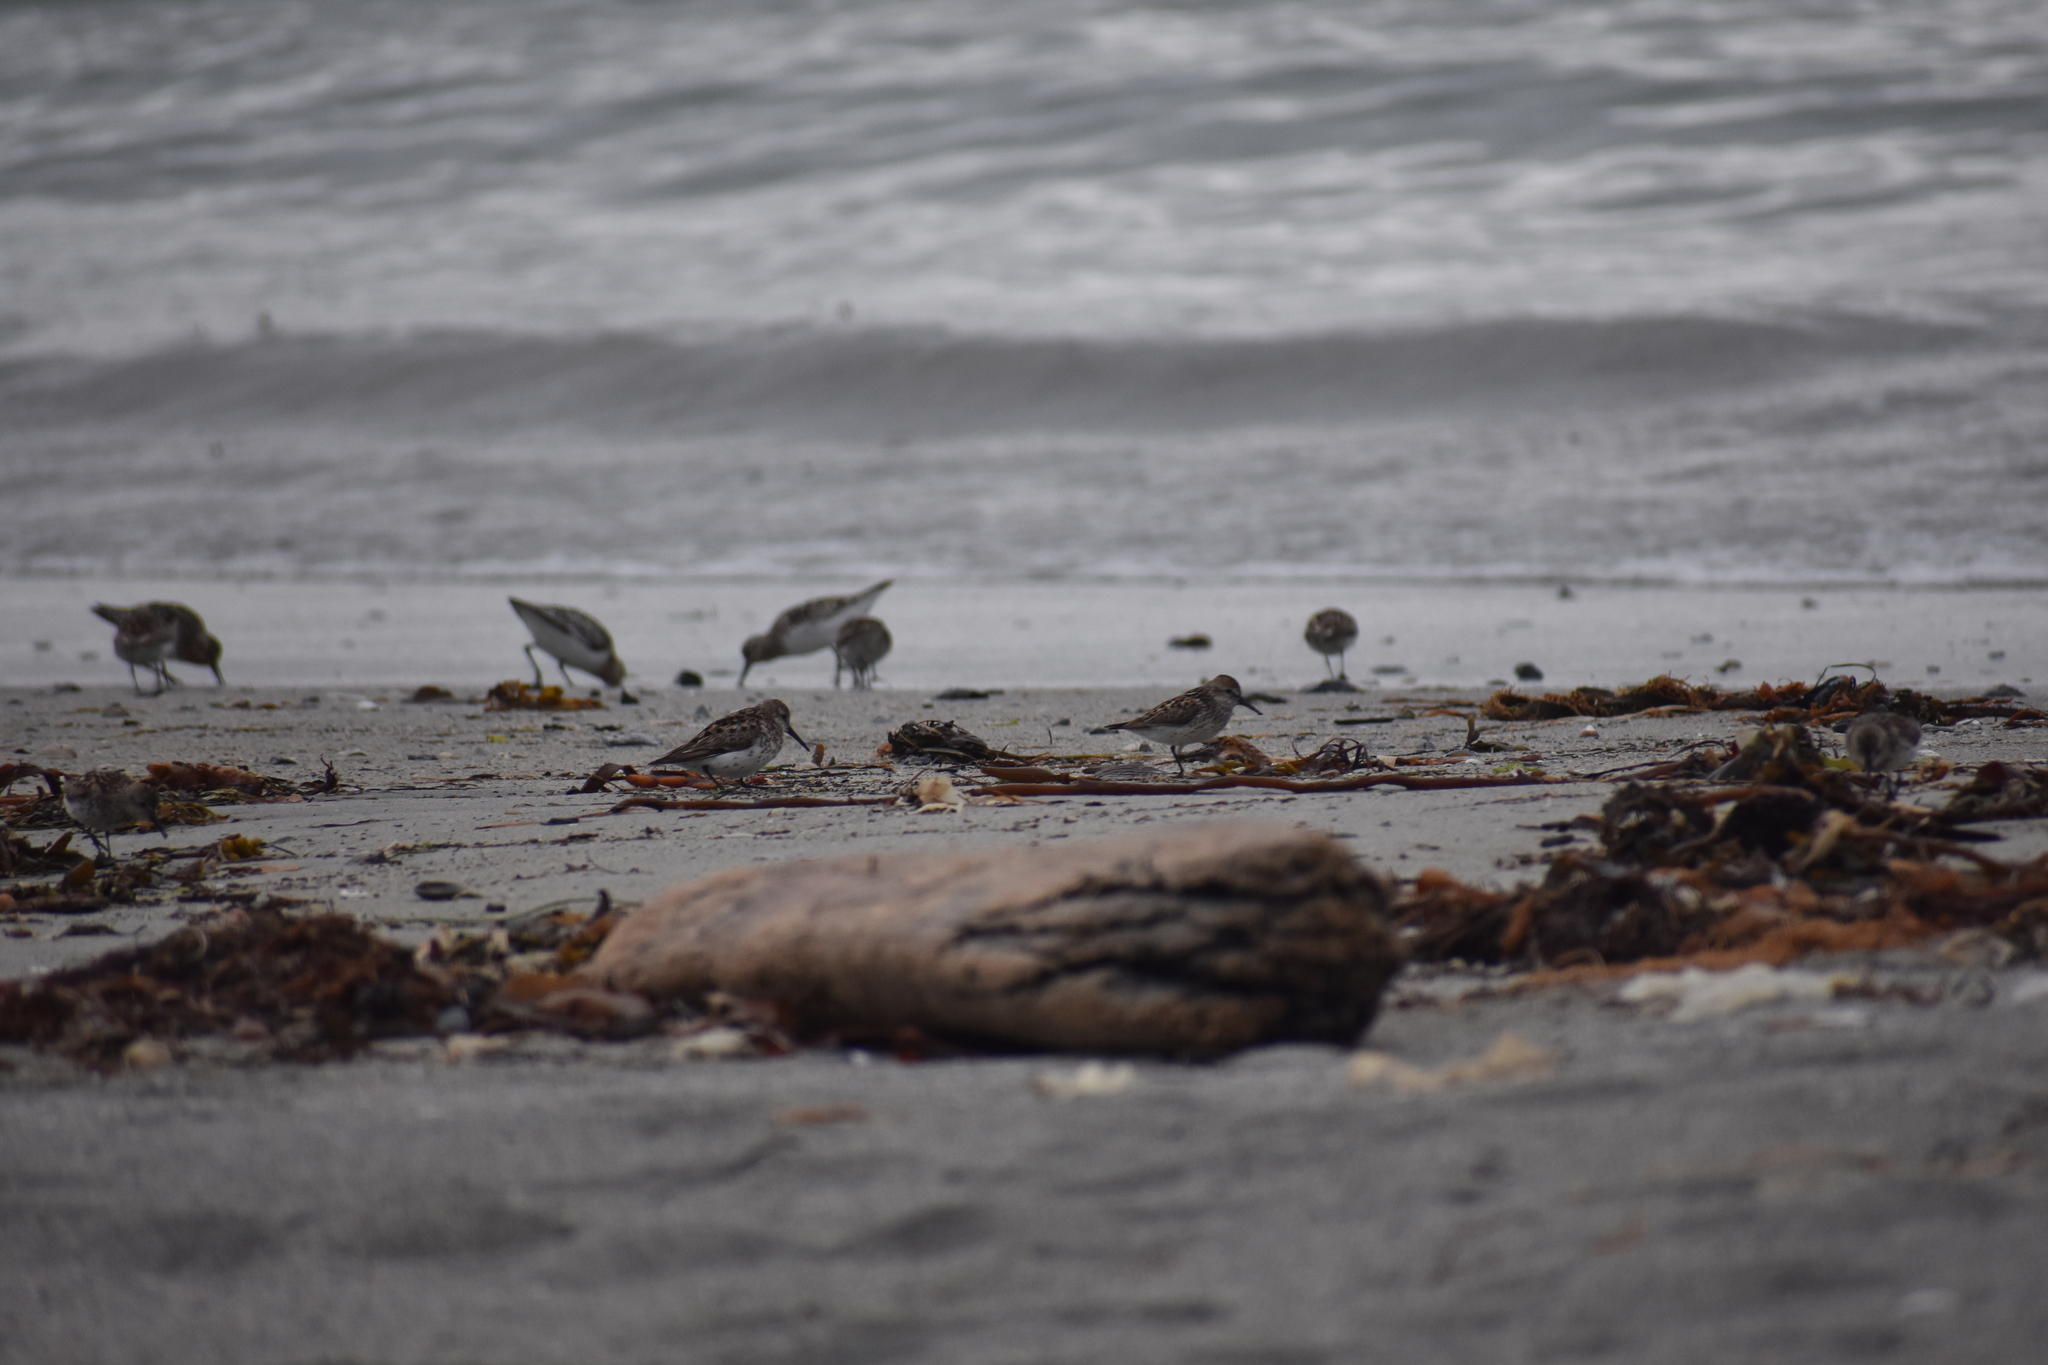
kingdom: Animalia
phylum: Chordata
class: Aves
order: Charadriiformes
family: Scolopacidae
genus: Calidris
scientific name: Calidris mauri
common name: Western sandpiper
